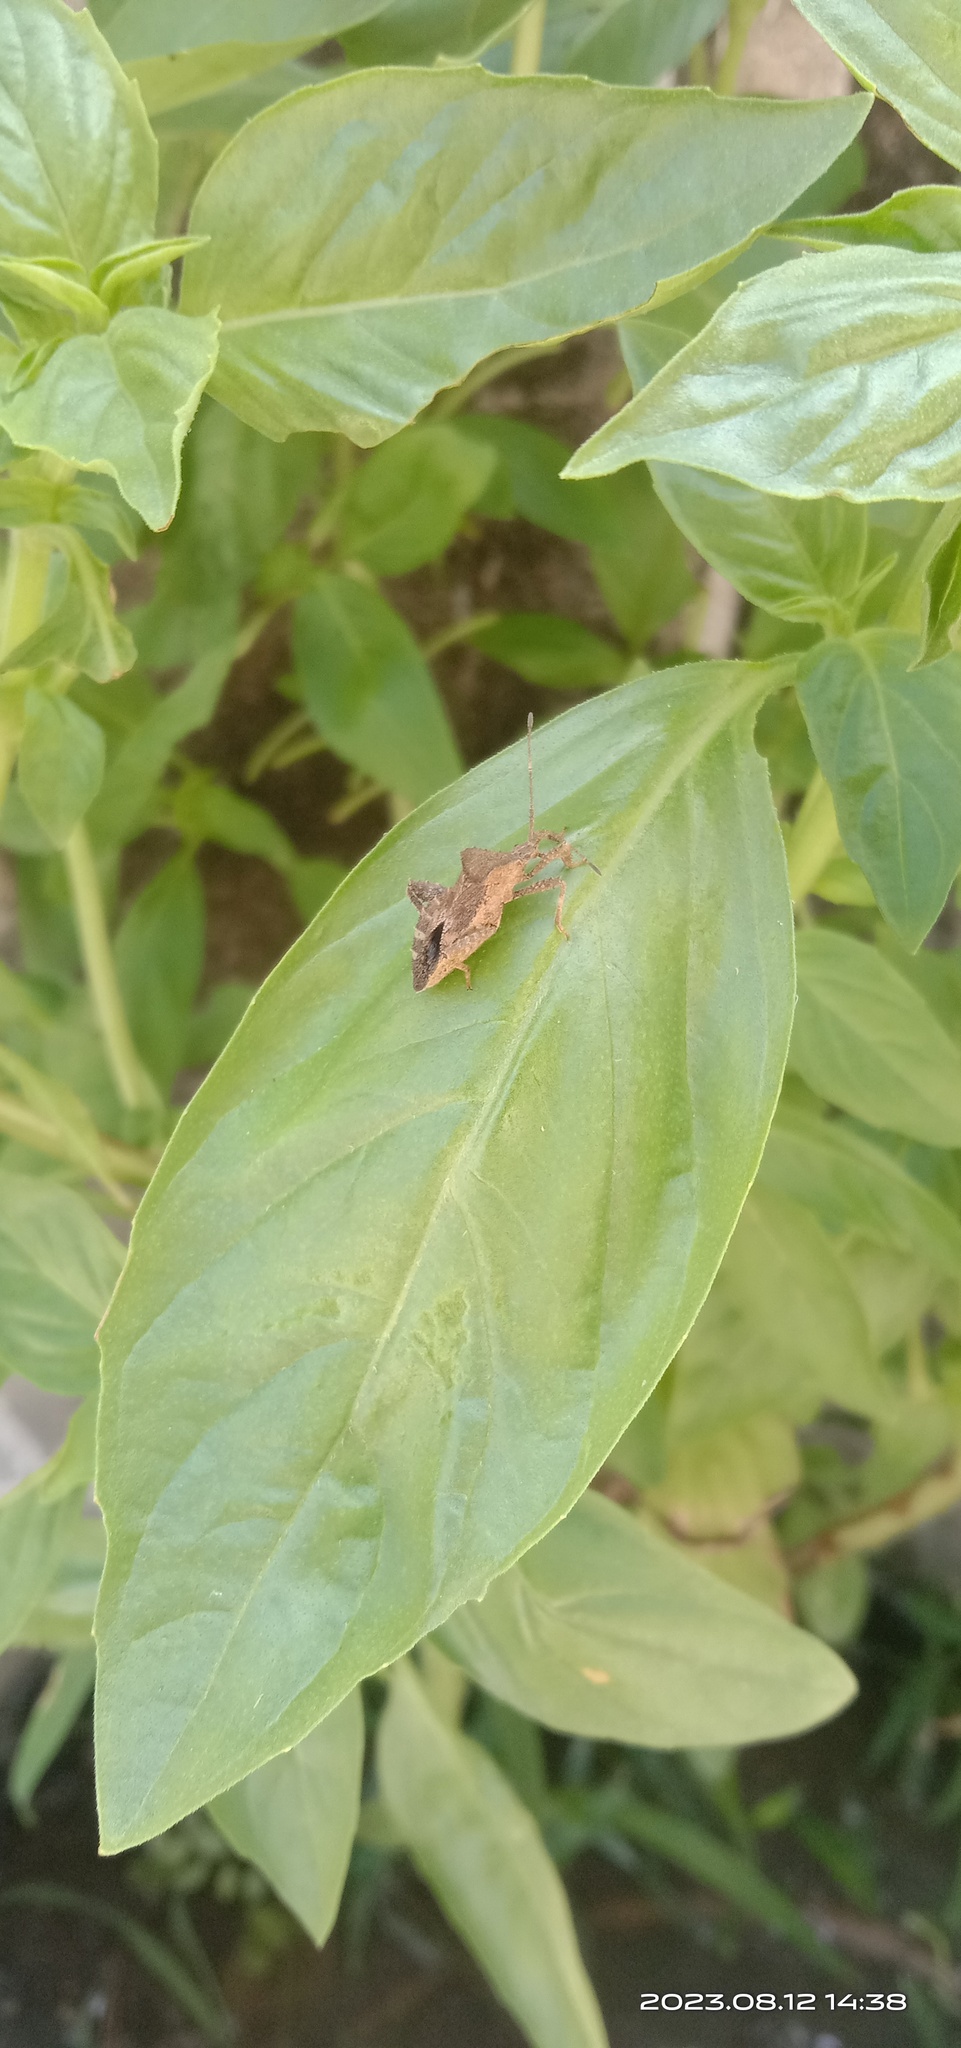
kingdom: Animalia
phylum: Arthropoda
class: Insecta
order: Hemiptera
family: Coreidae
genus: Acanthocoris
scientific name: Acanthocoris scaber
